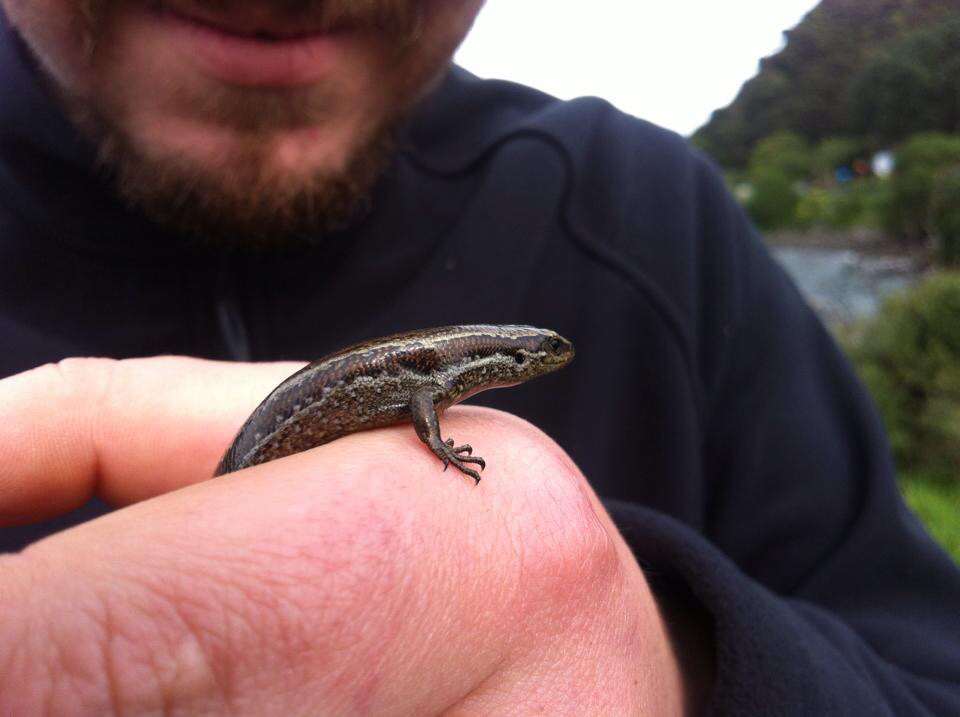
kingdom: Animalia
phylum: Chordata
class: Squamata
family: Scincidae
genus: Oligosoma
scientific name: Oligosoma polychroma
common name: Common new zealand skink
